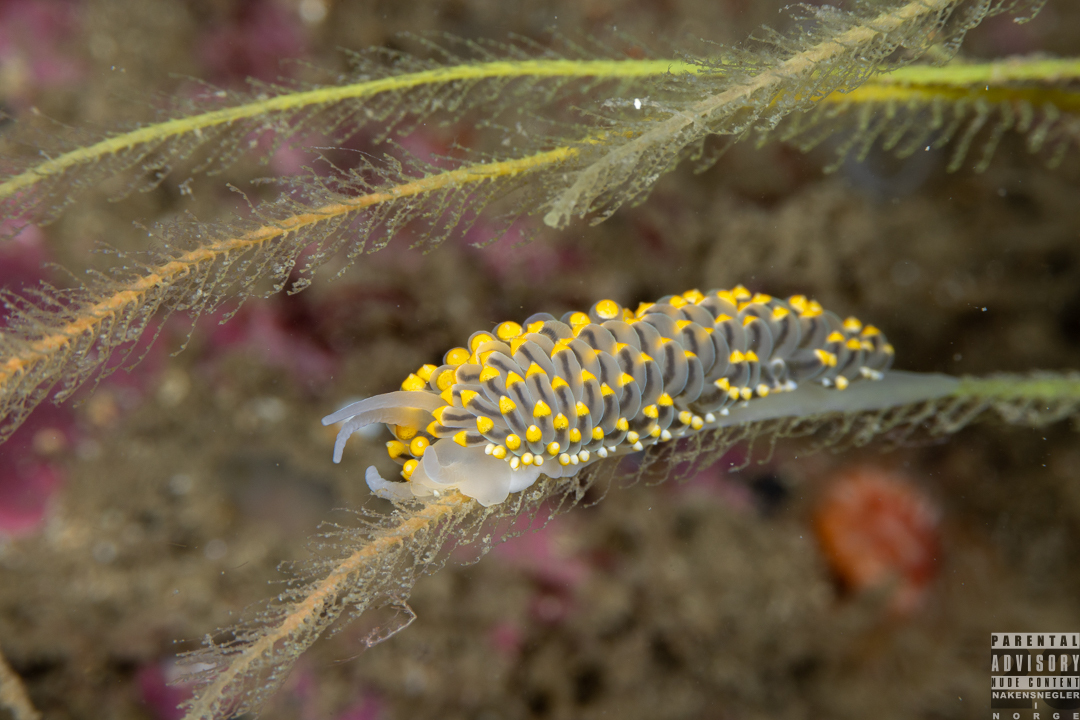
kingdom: Animalia
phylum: Mollusca
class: Gastropoda
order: Nudibranchia
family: Eubranchidae
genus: Eubranchus
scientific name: Eubranchus tricolor
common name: Painted balloon aeolis
